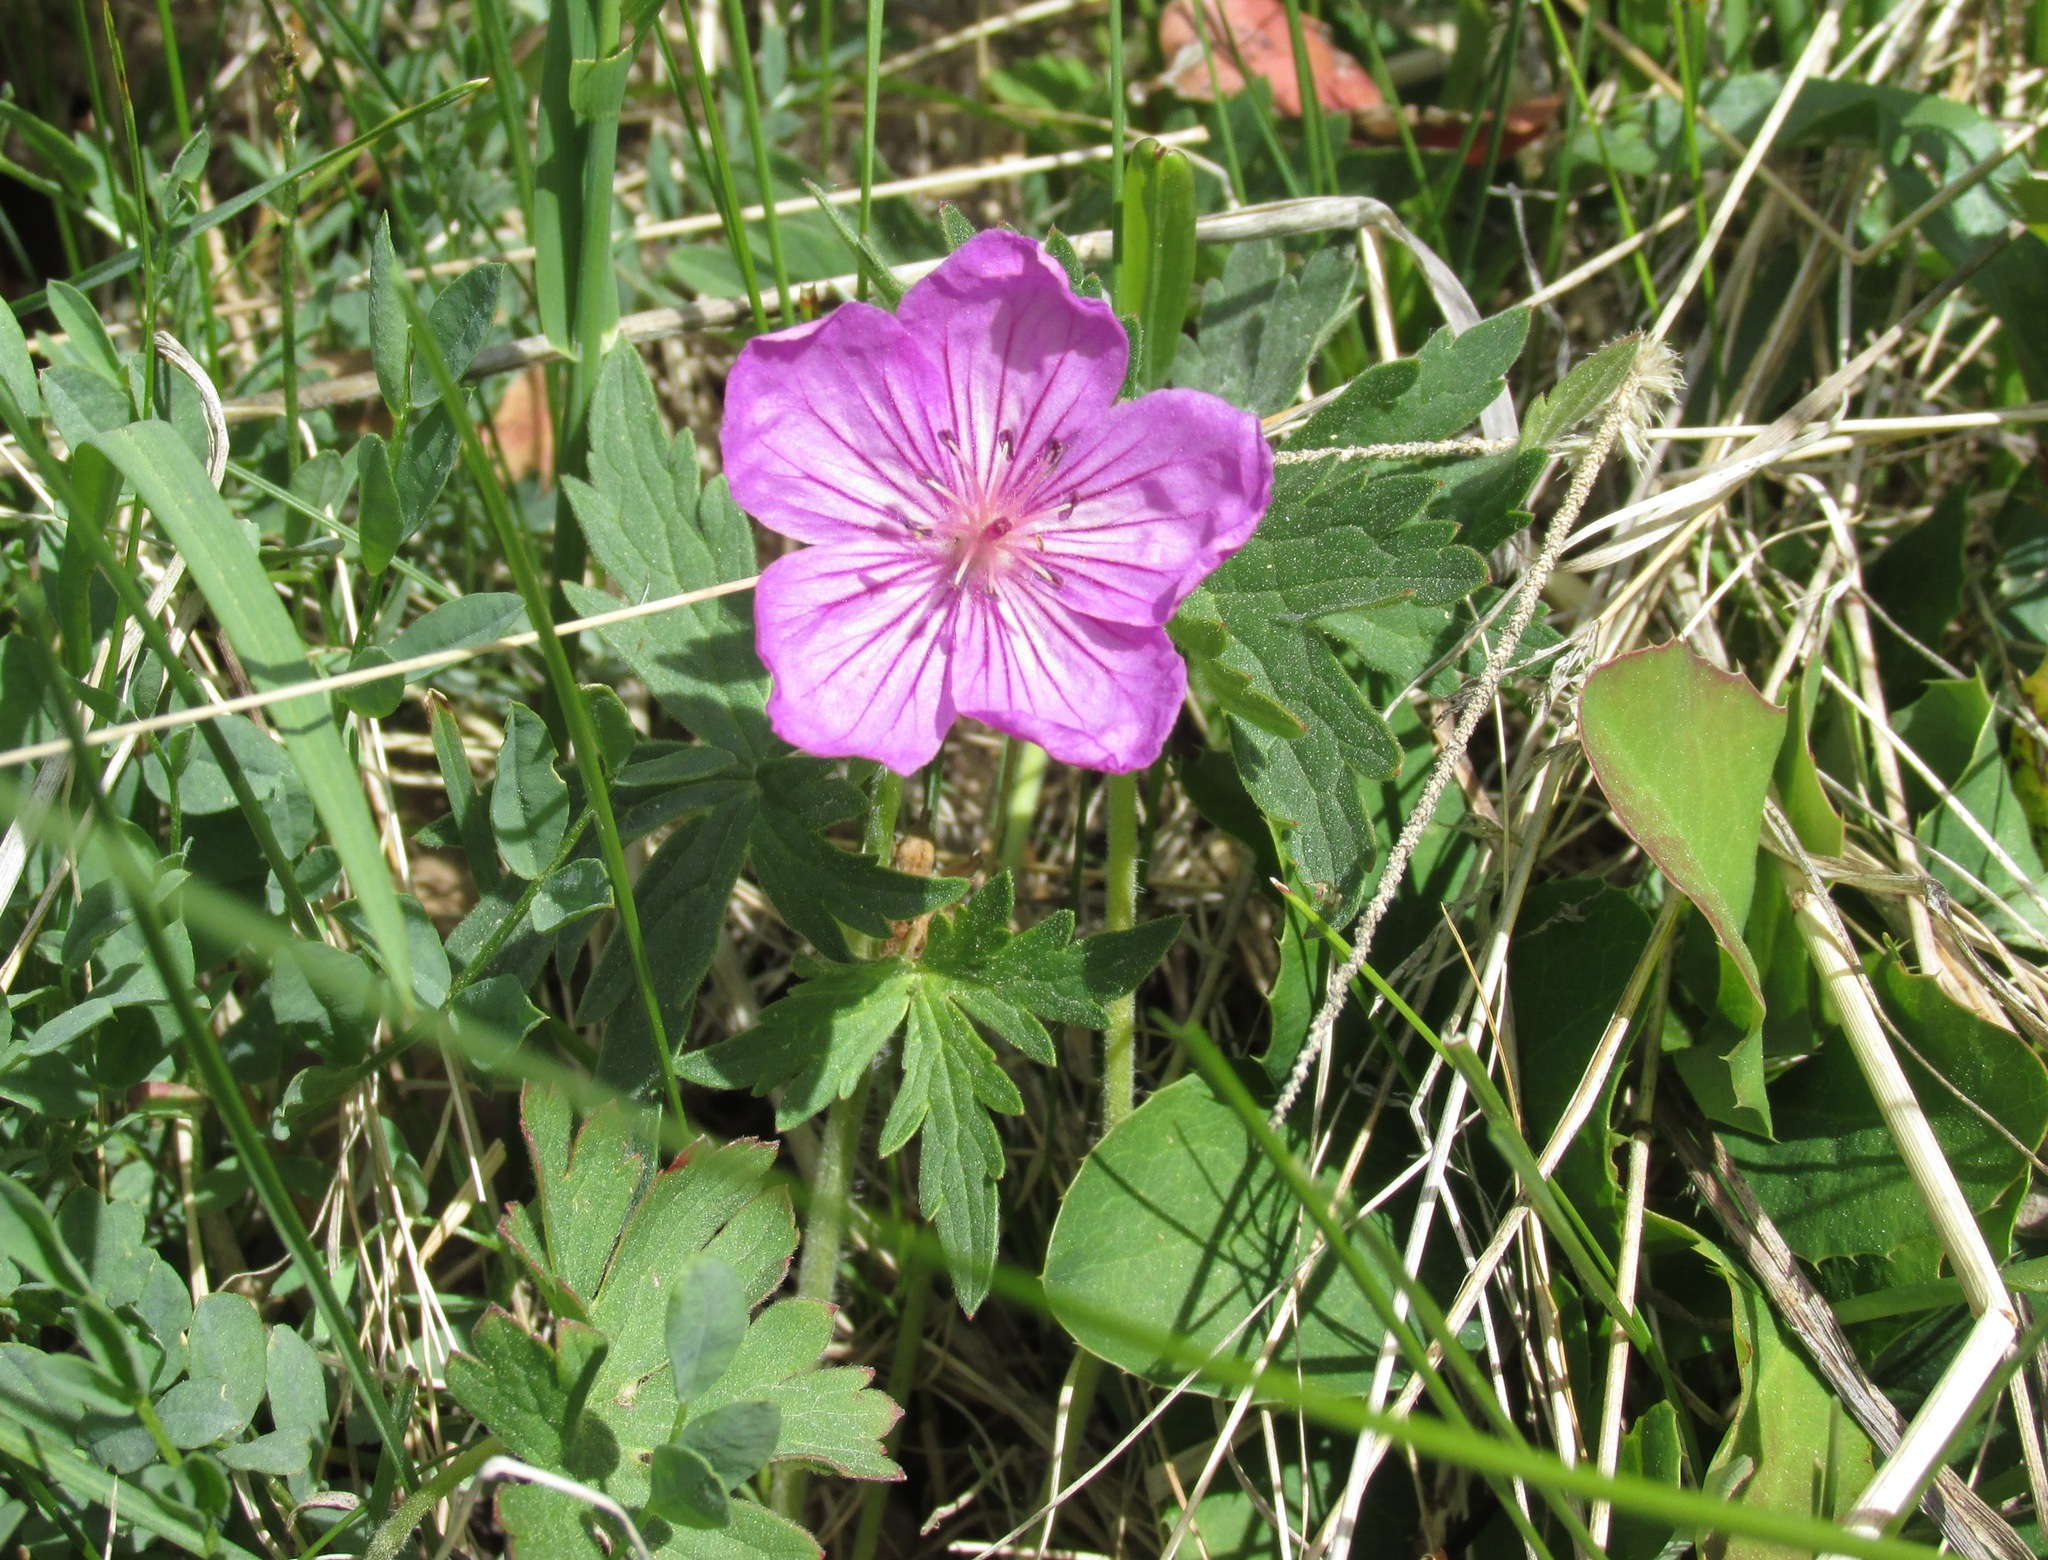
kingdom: Plantae
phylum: Tracheophyta
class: Magnoliopsida
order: Geraniales
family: Geraniaceae
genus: Geranium
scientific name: Geranium viscosissimum
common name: Purple geranium
